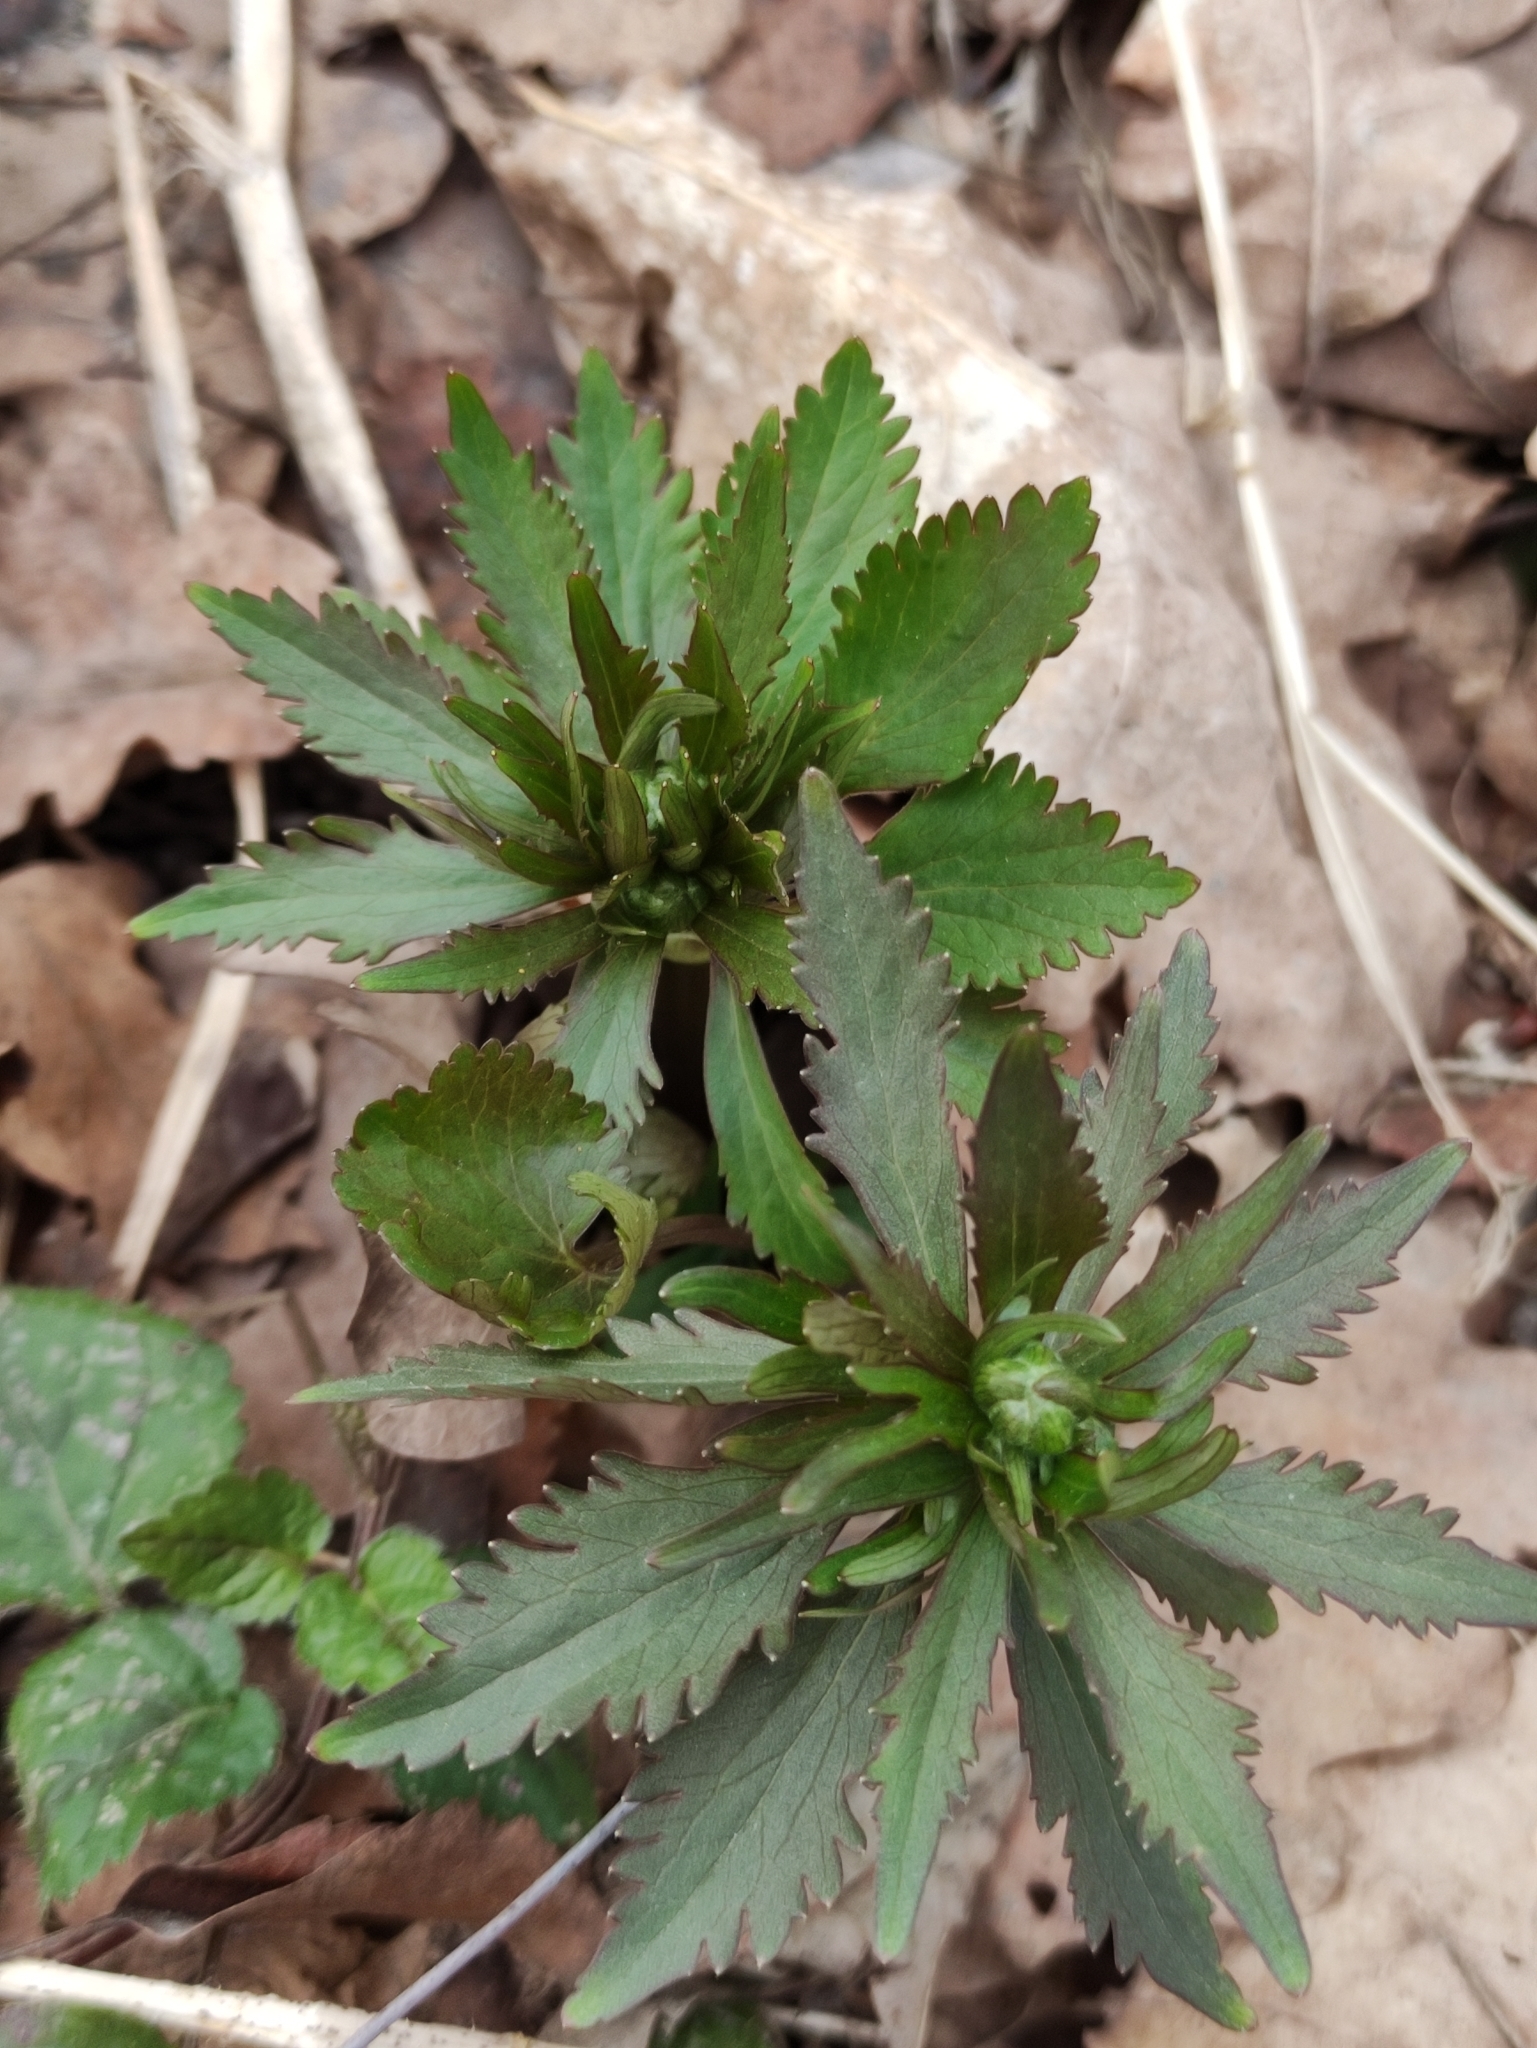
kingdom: Plantae
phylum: Tracheophyta
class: Magnoliopsida
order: Ranunculales
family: Ranunculaceae
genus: Ranunculus
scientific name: Ranunculus cassubicus
